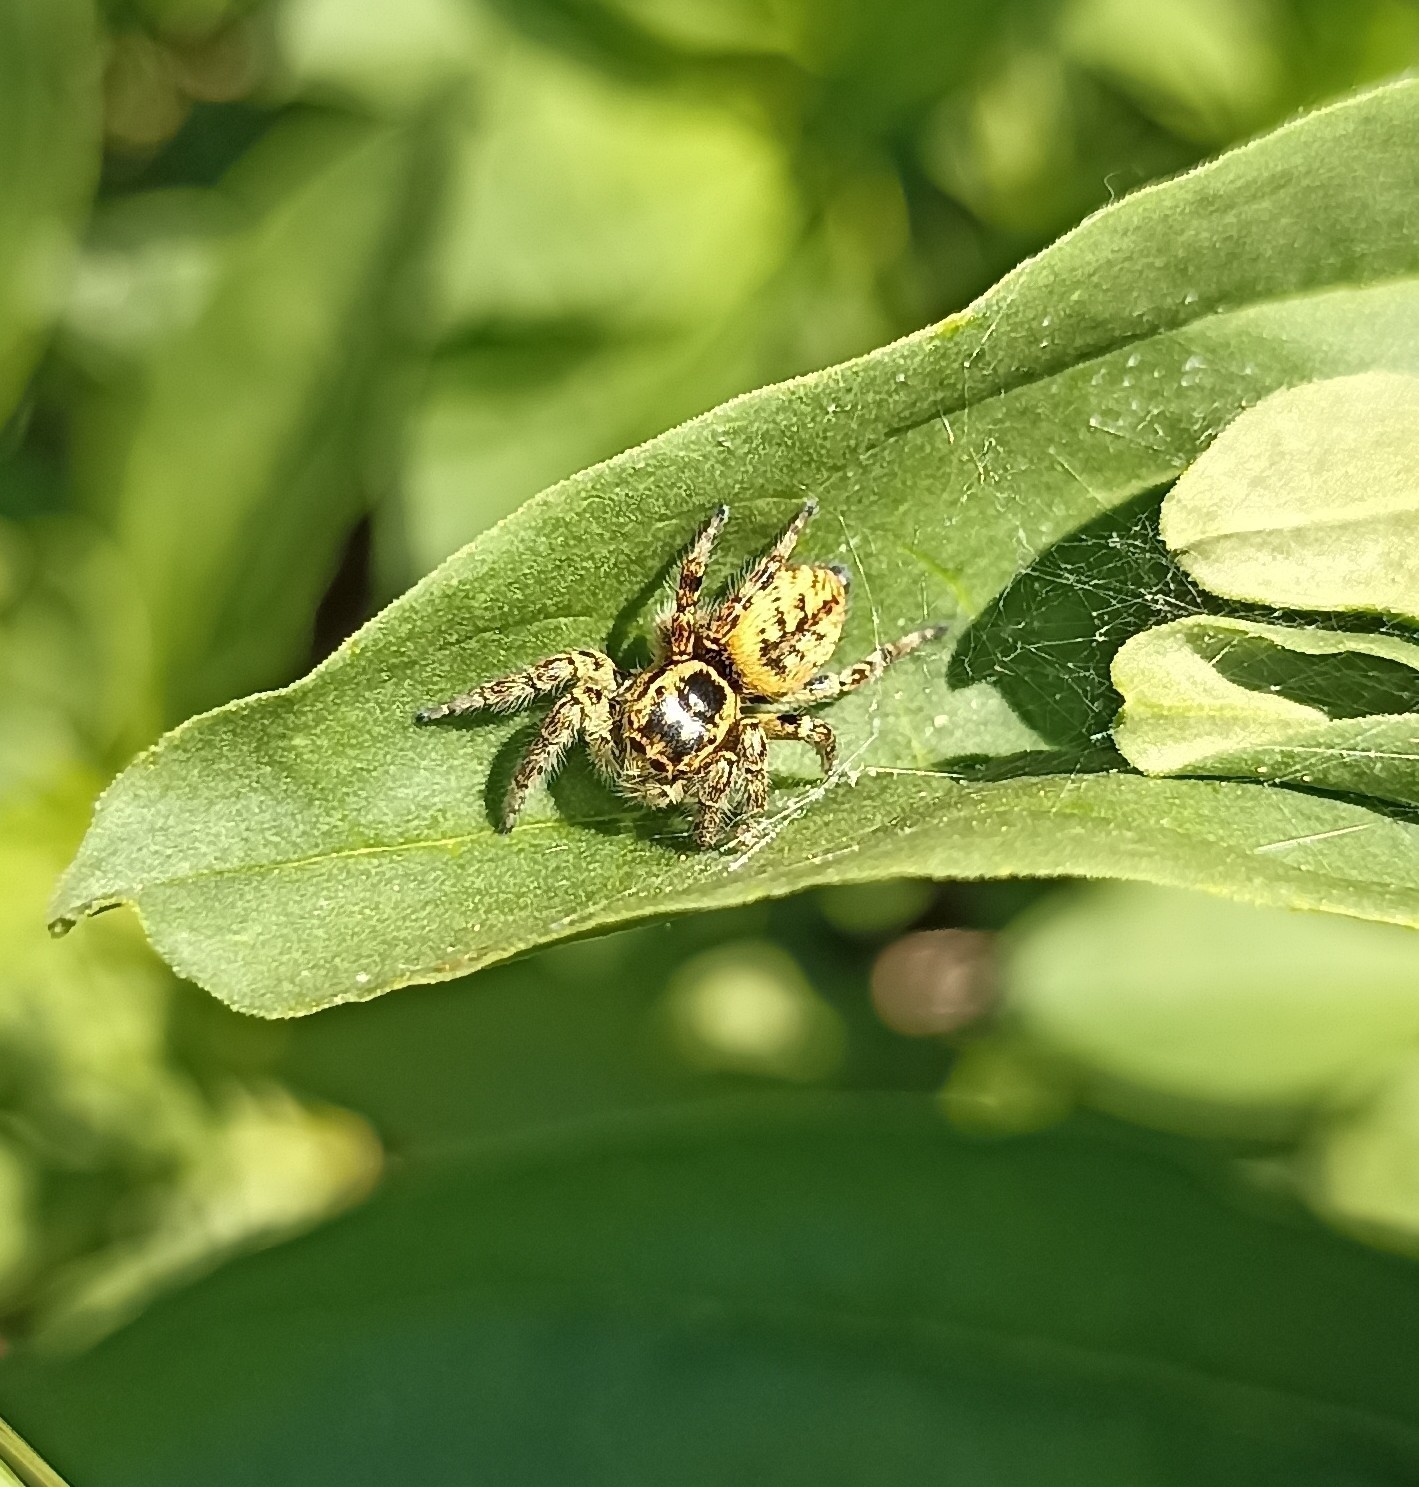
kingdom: Animalia
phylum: Arthropoda
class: Arachnida
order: Araneae
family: Salticidae
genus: Carrhotus
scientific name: Carrhotus xanthogramma
